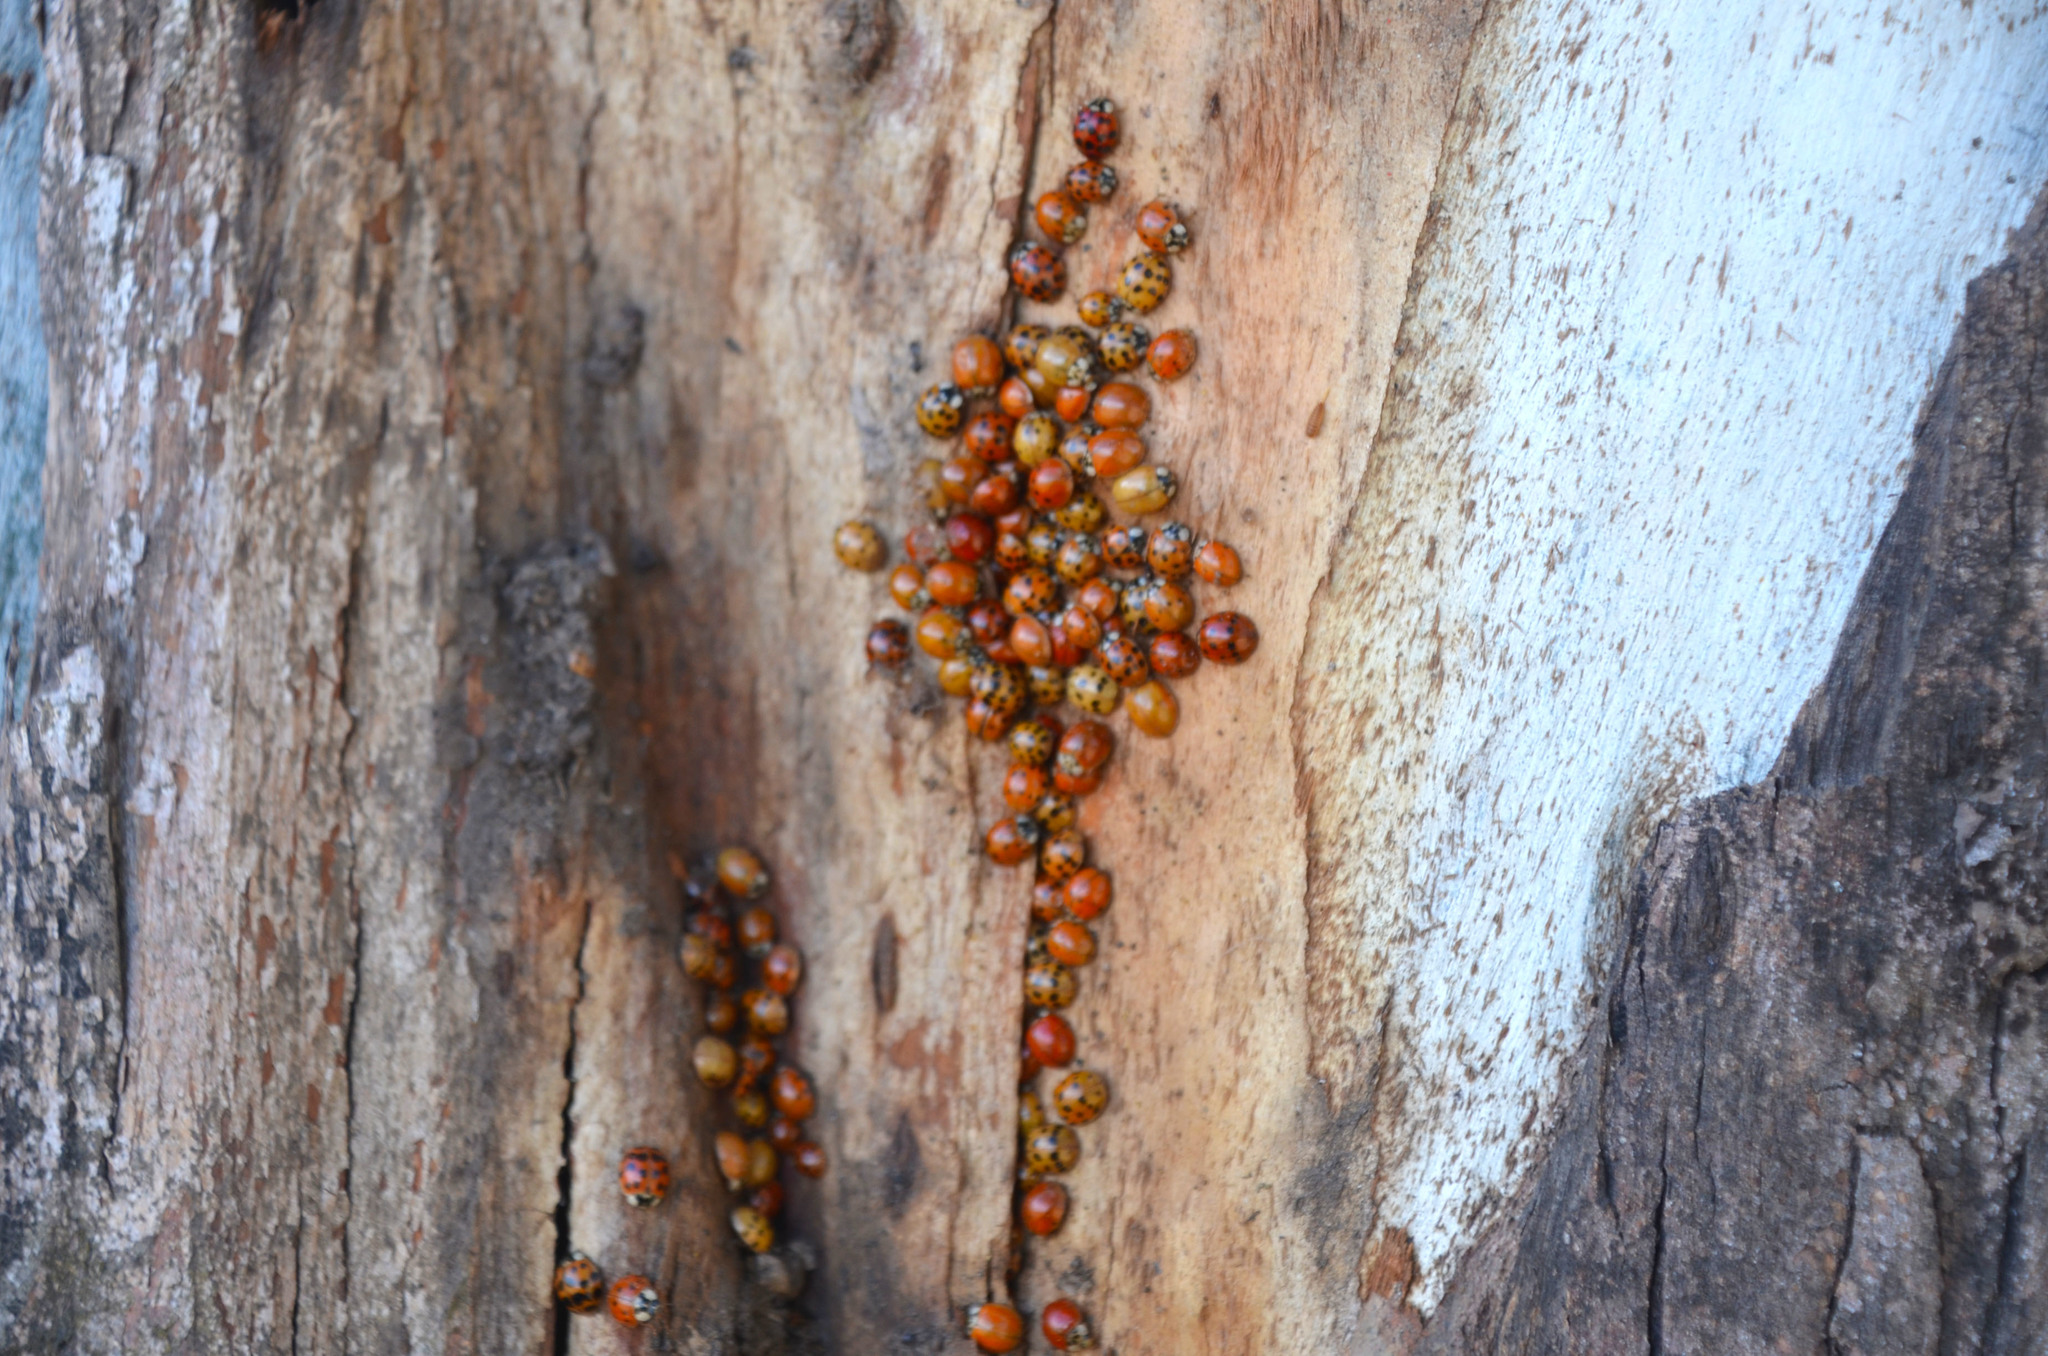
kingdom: Animalia
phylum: Arthropoda
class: Insecta
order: Coleoptera
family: Coccinellidae
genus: Harmonia
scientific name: Harmonia axyridis
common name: Harlequin ladybird
